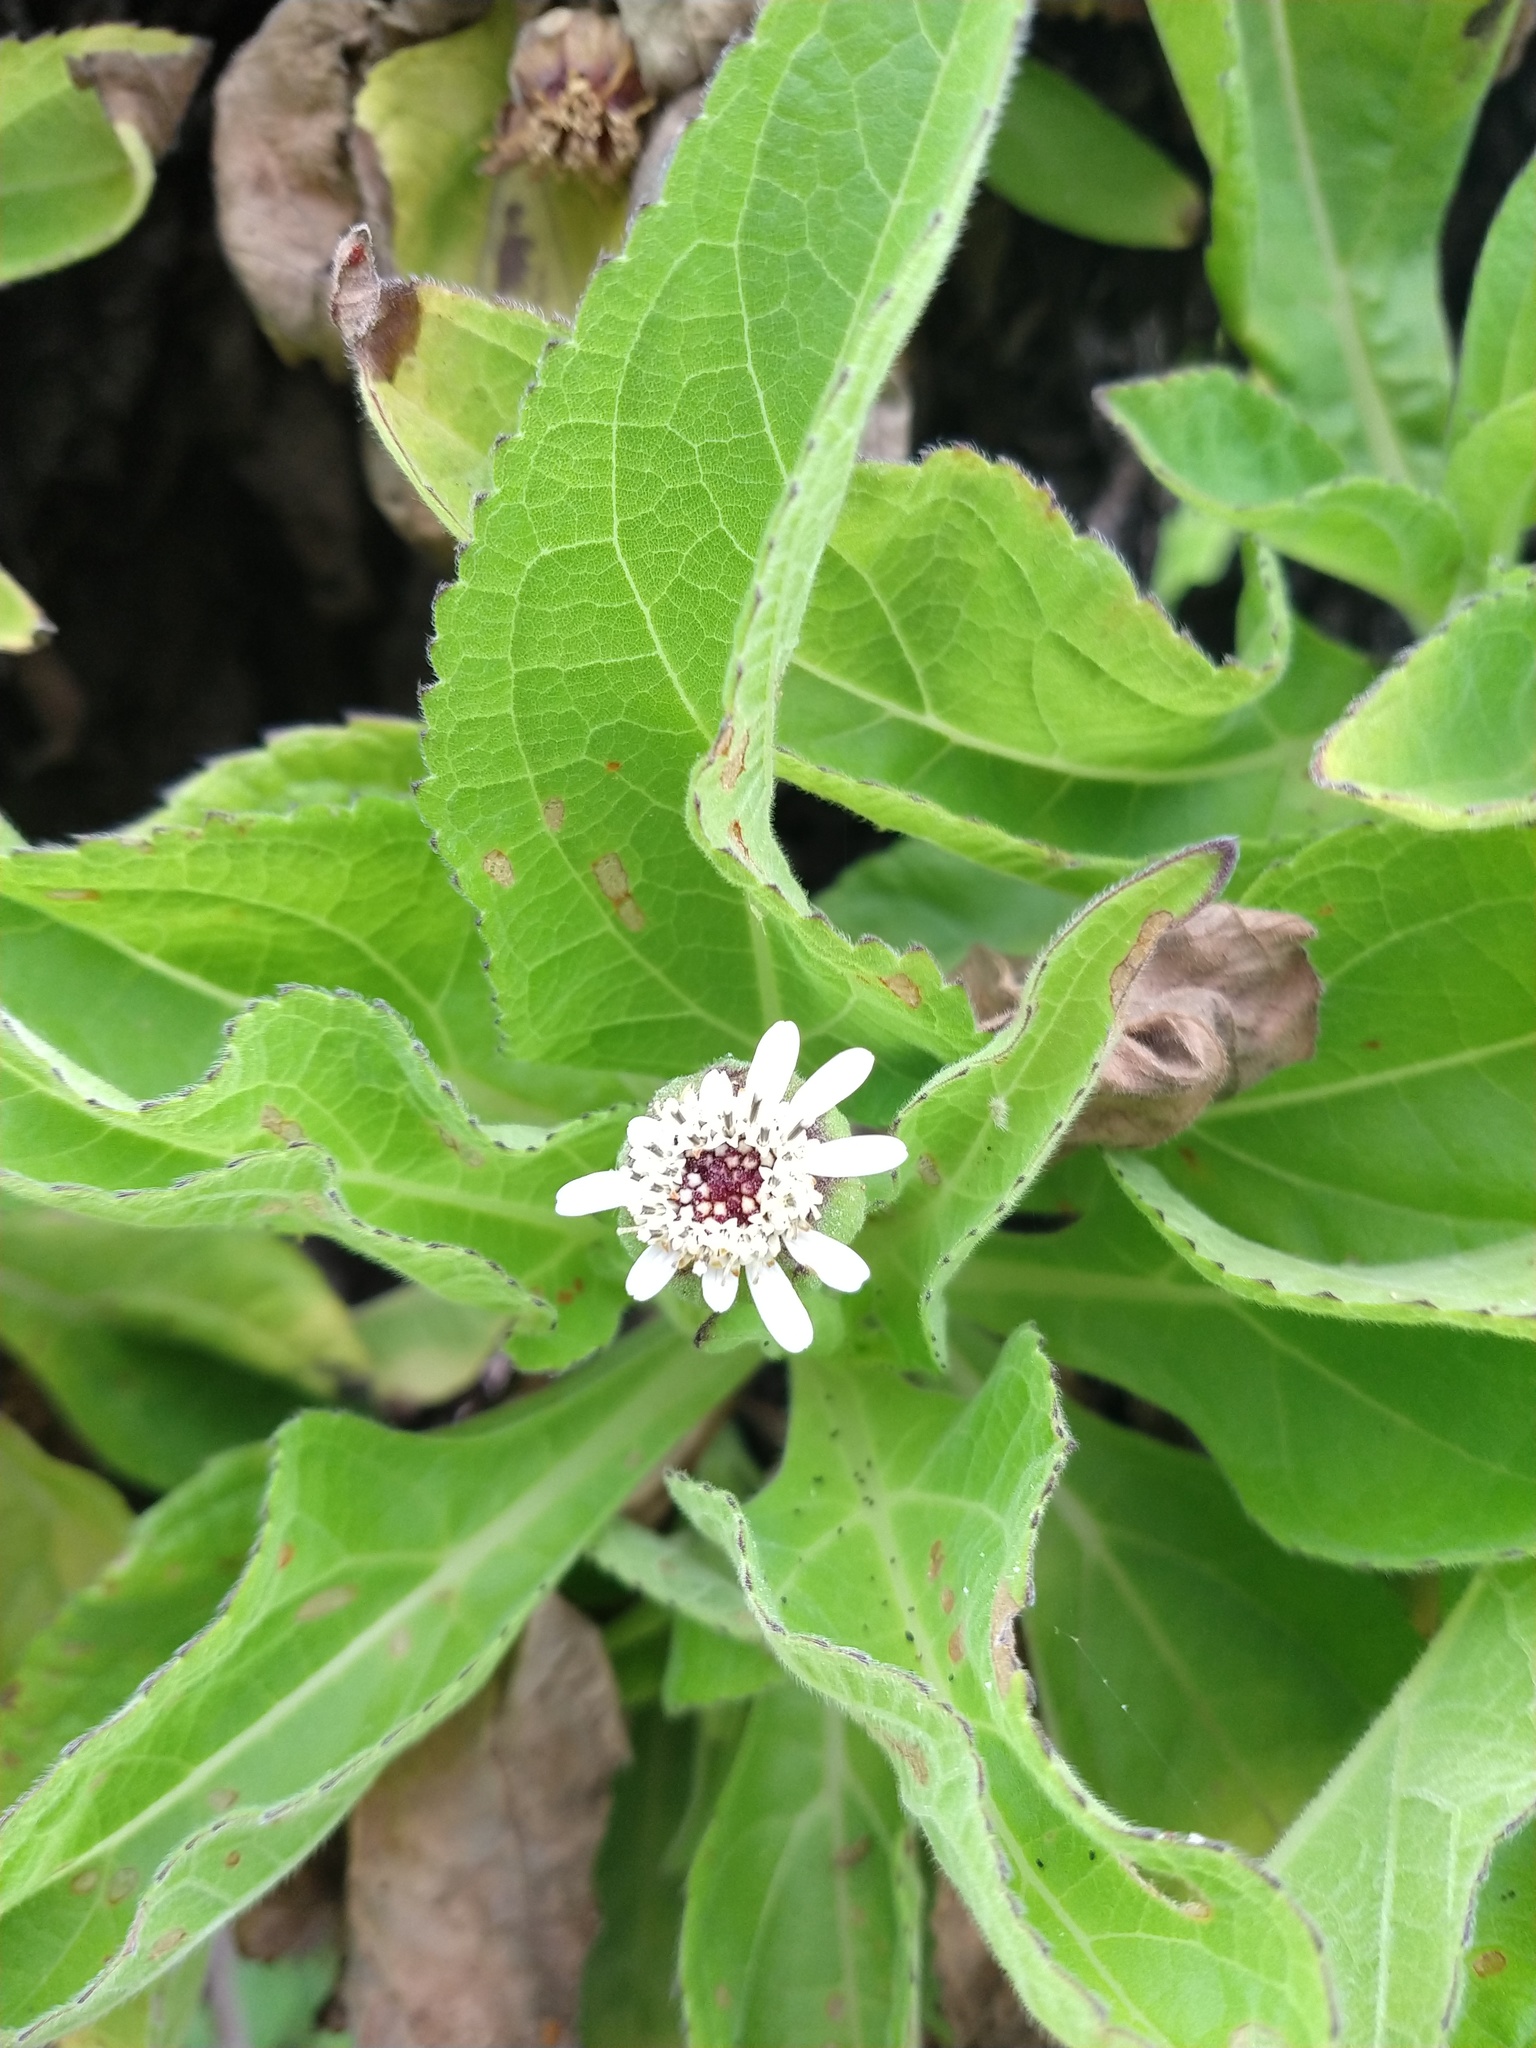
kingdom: Plantae
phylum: Tracheophyta
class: Magnoliopsida
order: Asterales
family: Asteraceae
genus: Scalesia
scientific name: Scalesia affinis
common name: Radiate-headed scalesia
